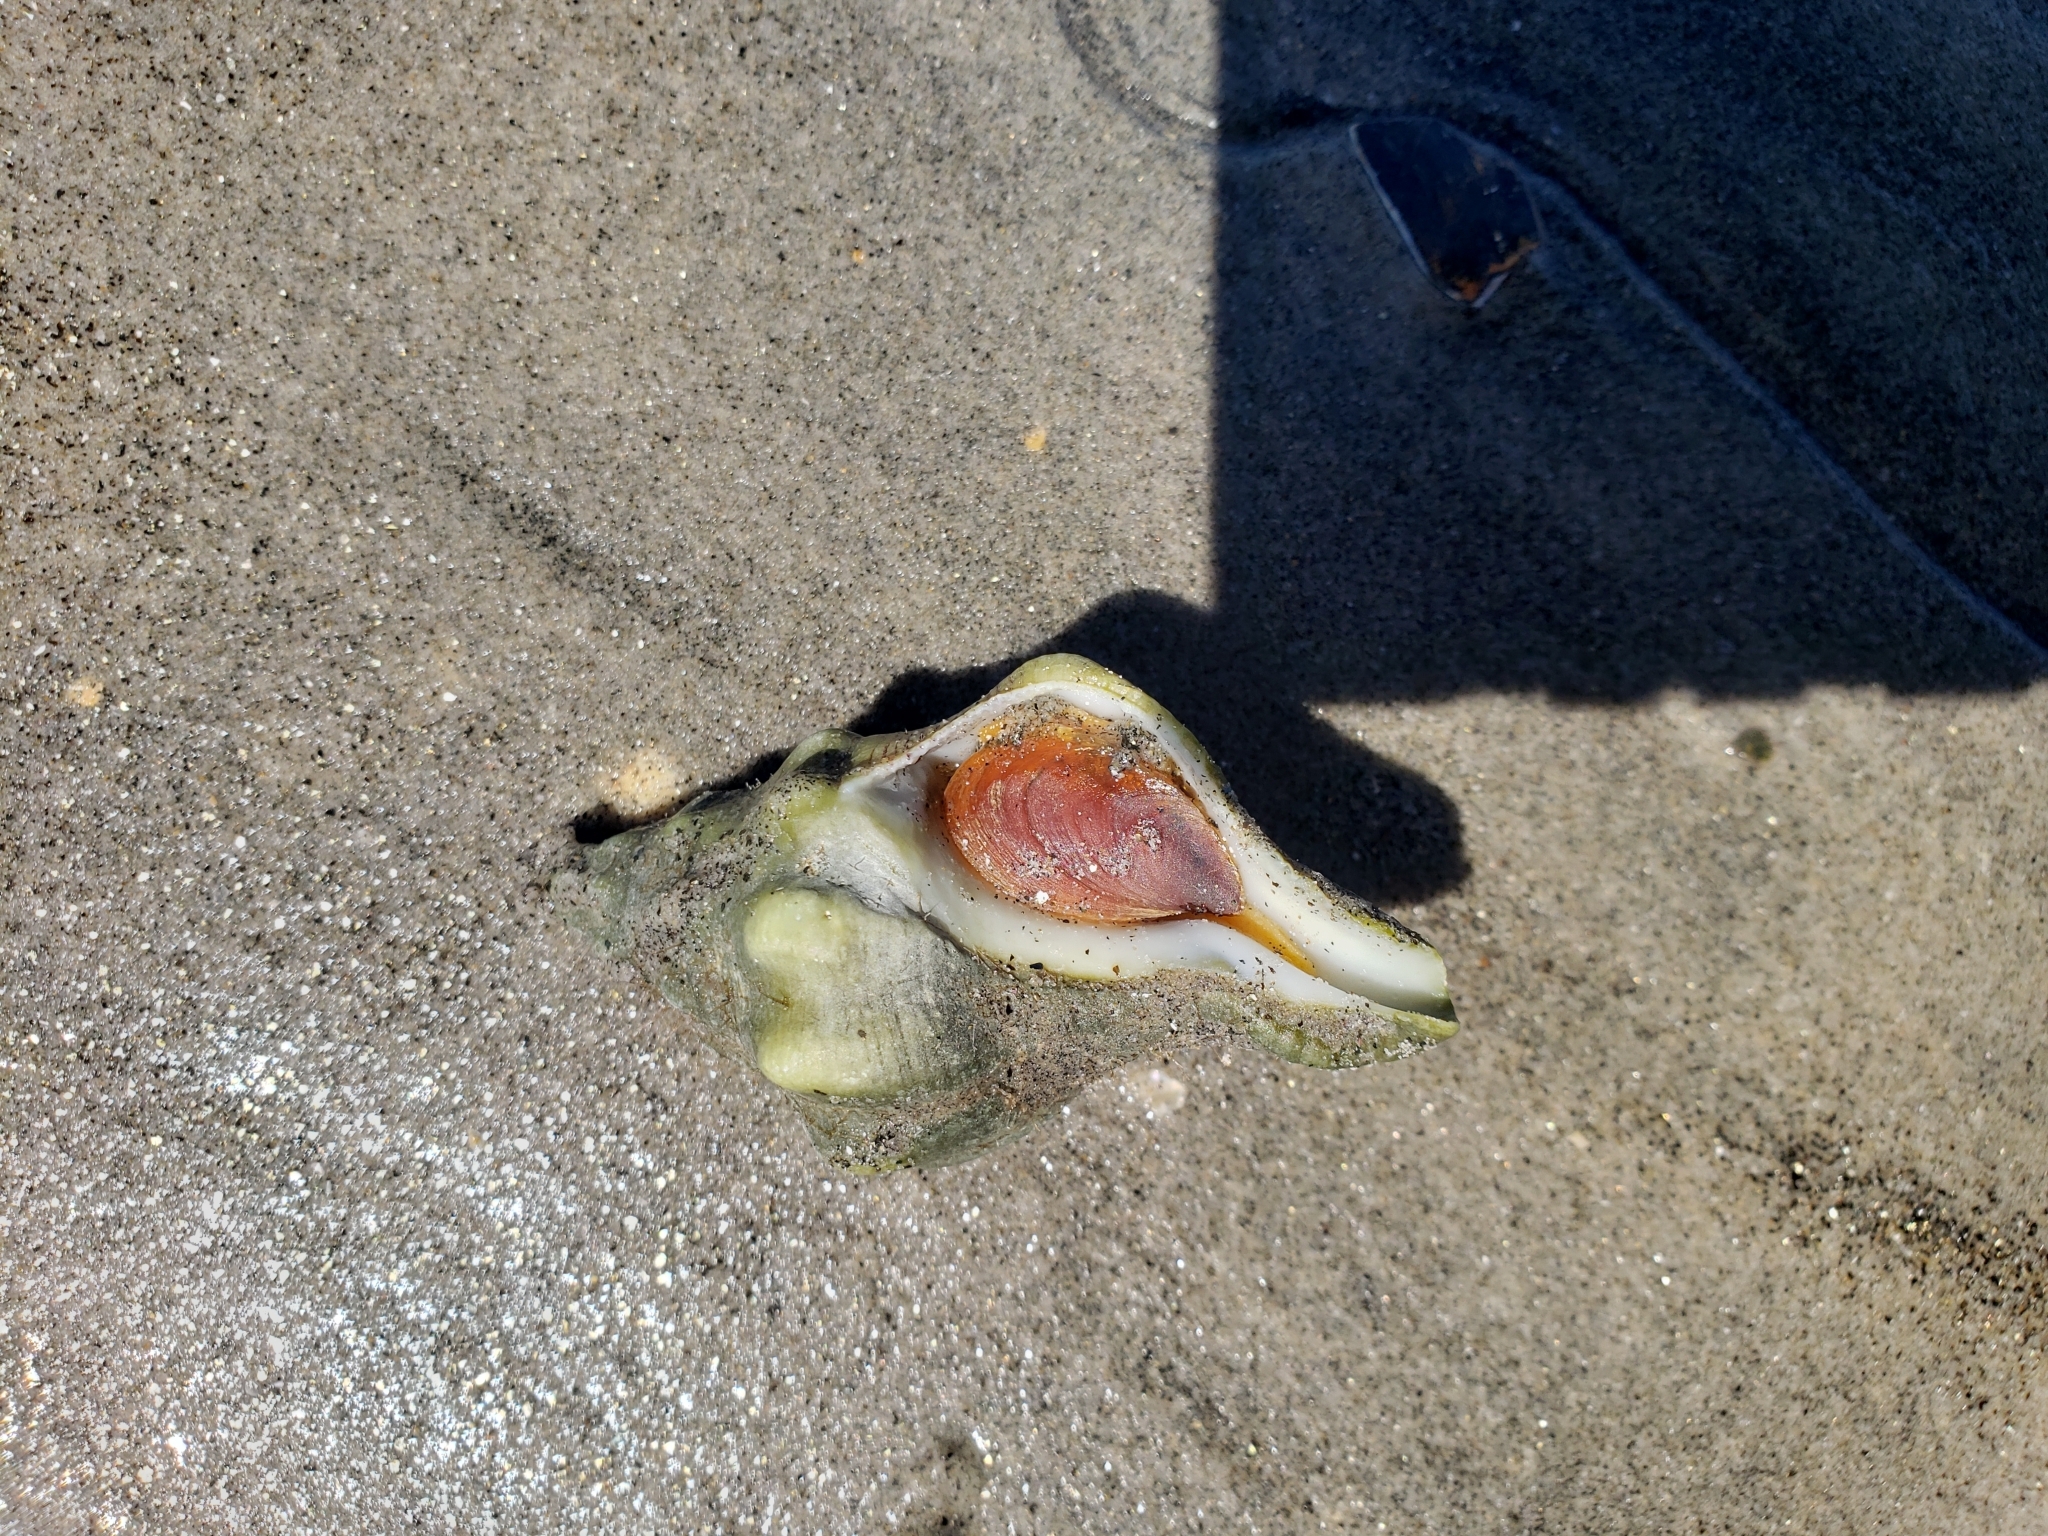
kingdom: Animalia
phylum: Mollusca
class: Gastropoda
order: Neogastropoda
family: Austrosiphonidae
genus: Kelletia
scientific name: Kelletia kelletii
